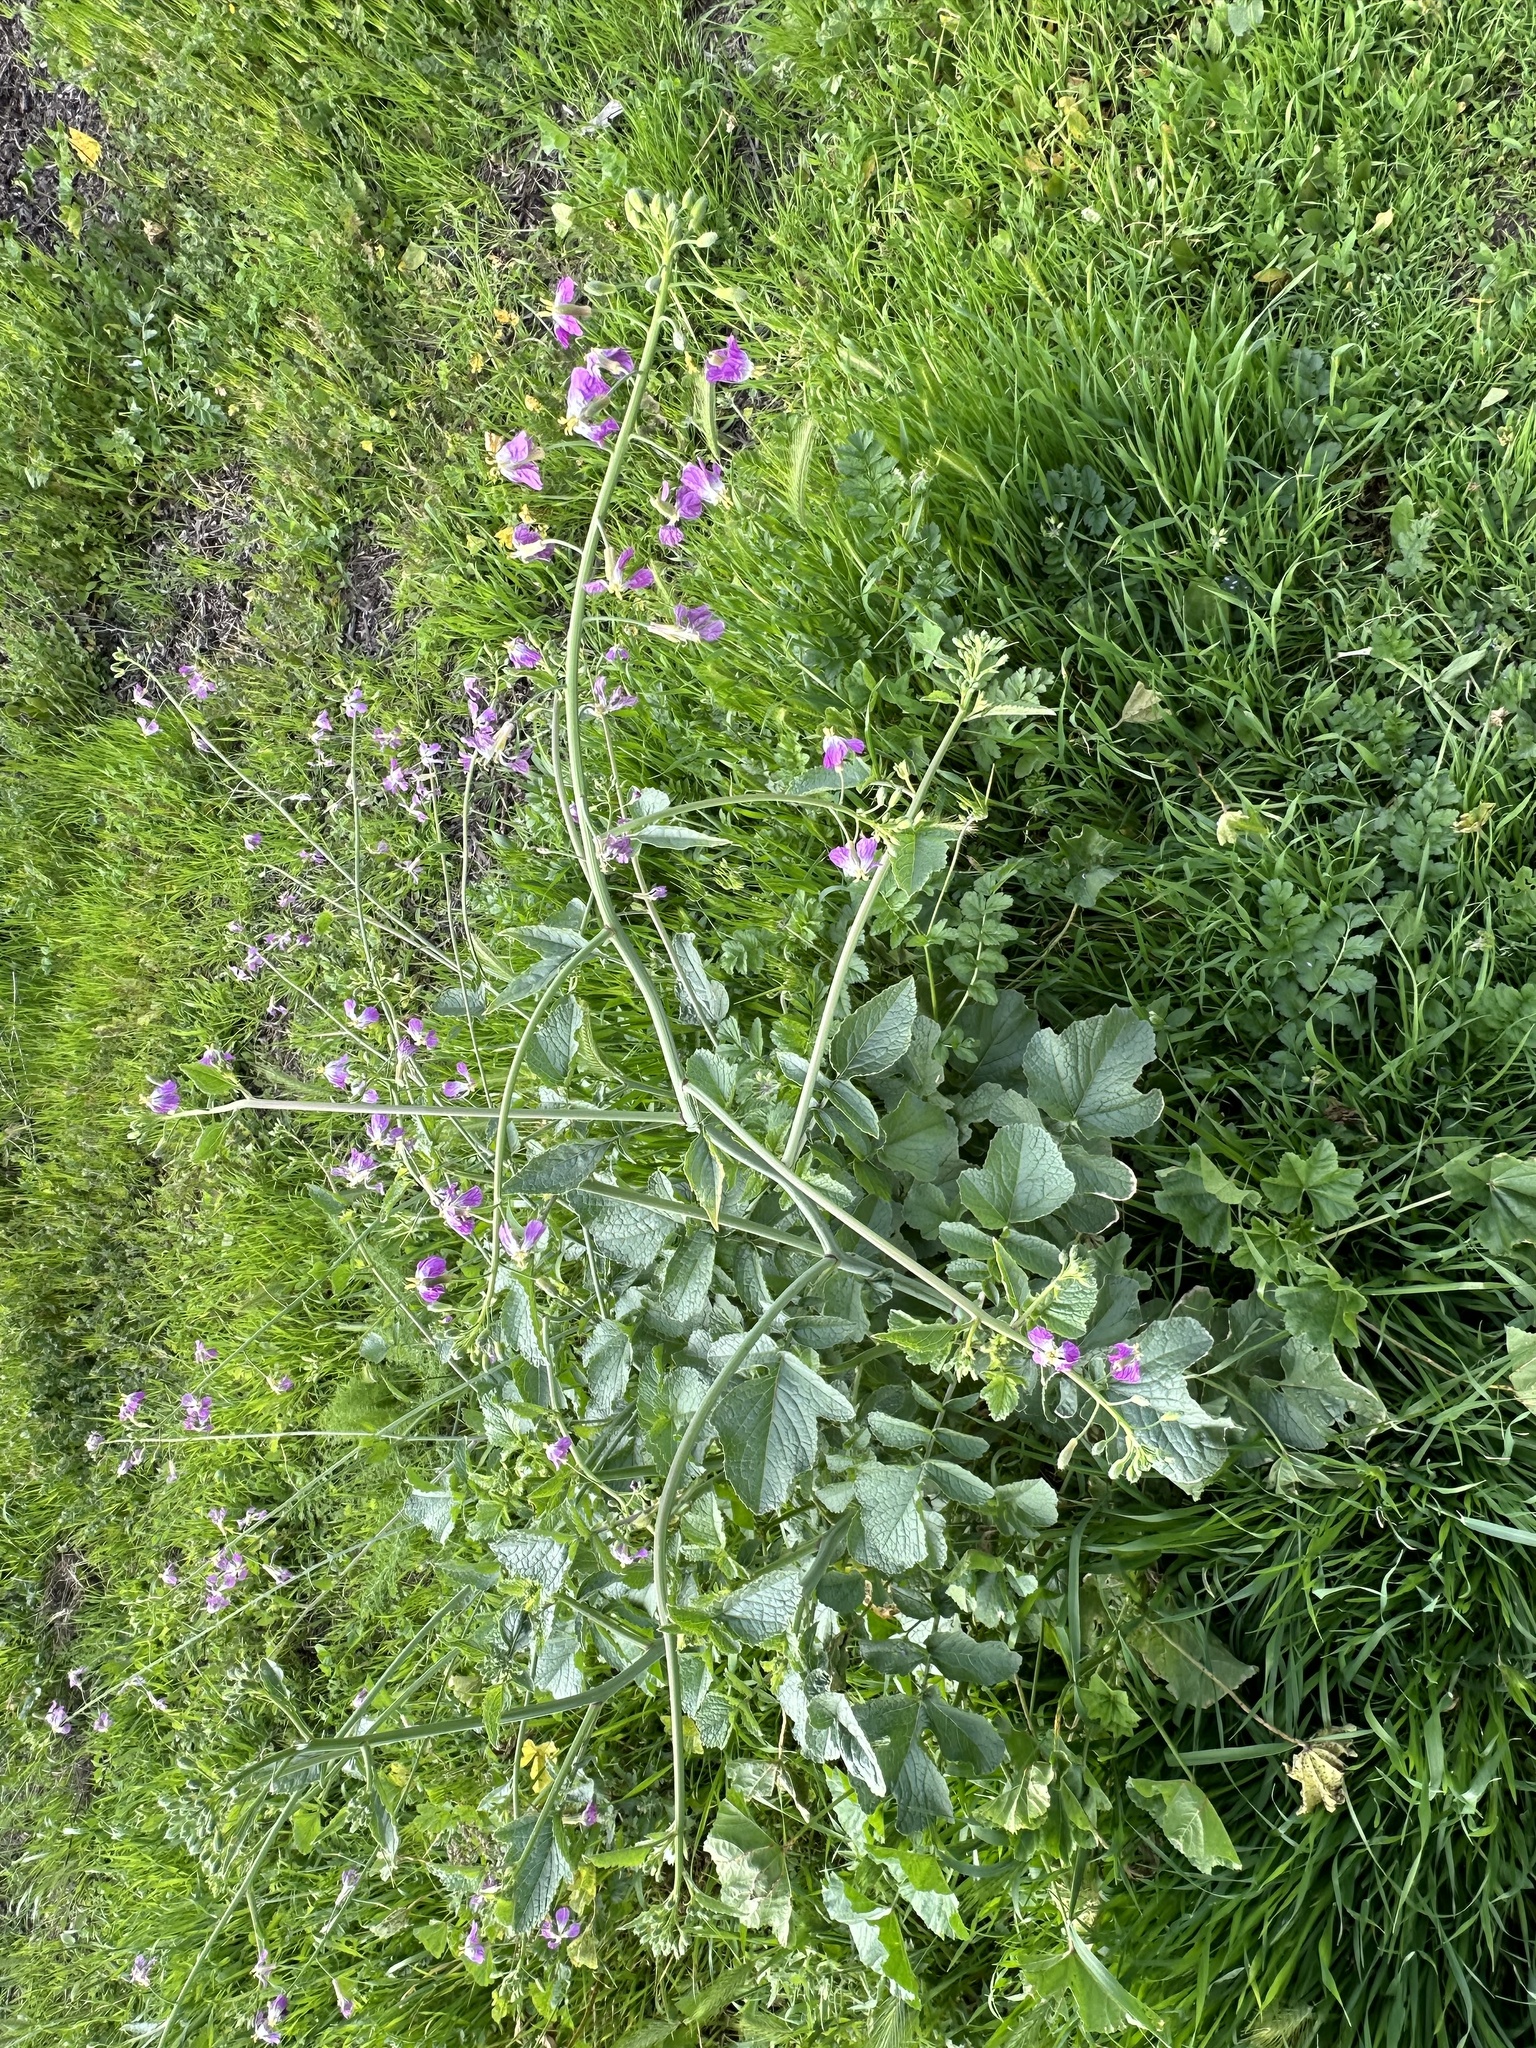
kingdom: Plantae
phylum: Tracheophyta
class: Magnoliopsida
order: Brassicales
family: Brassicaceae
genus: Raphanus
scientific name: Raphanus sativus
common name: Cultivated radish
